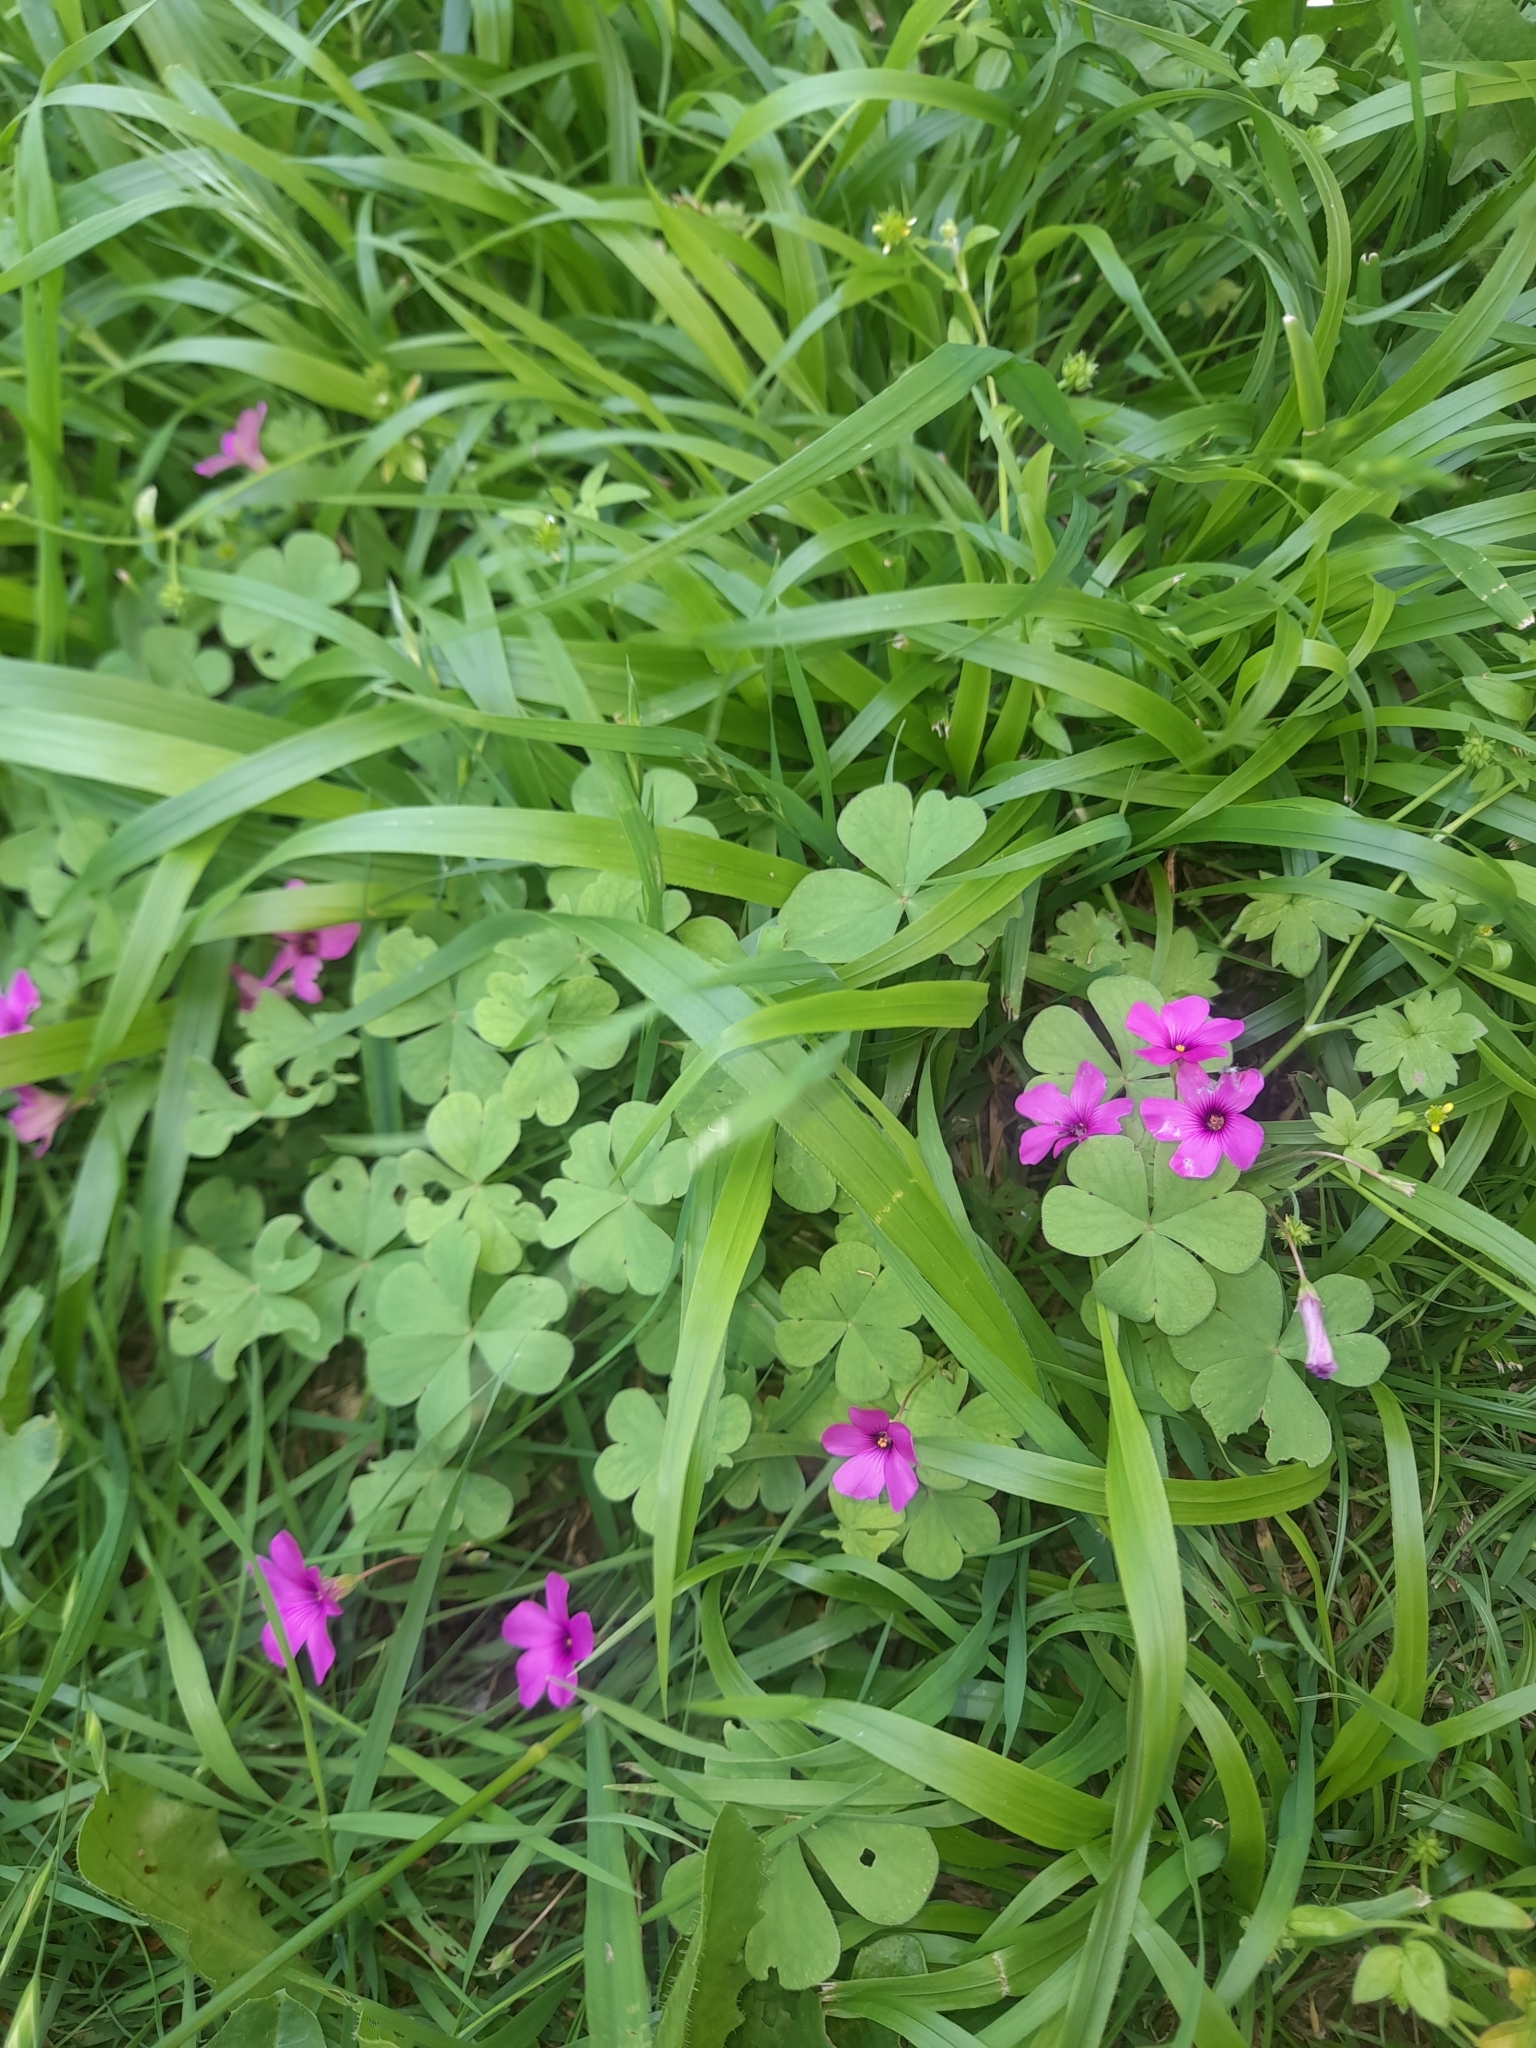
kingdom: Plantae
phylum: Tracheophyta
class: Magnoliopsida
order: Oxalidales
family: Oxalidaceae
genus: Oxalis
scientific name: Oxalis articulata
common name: Pink-sorrel
